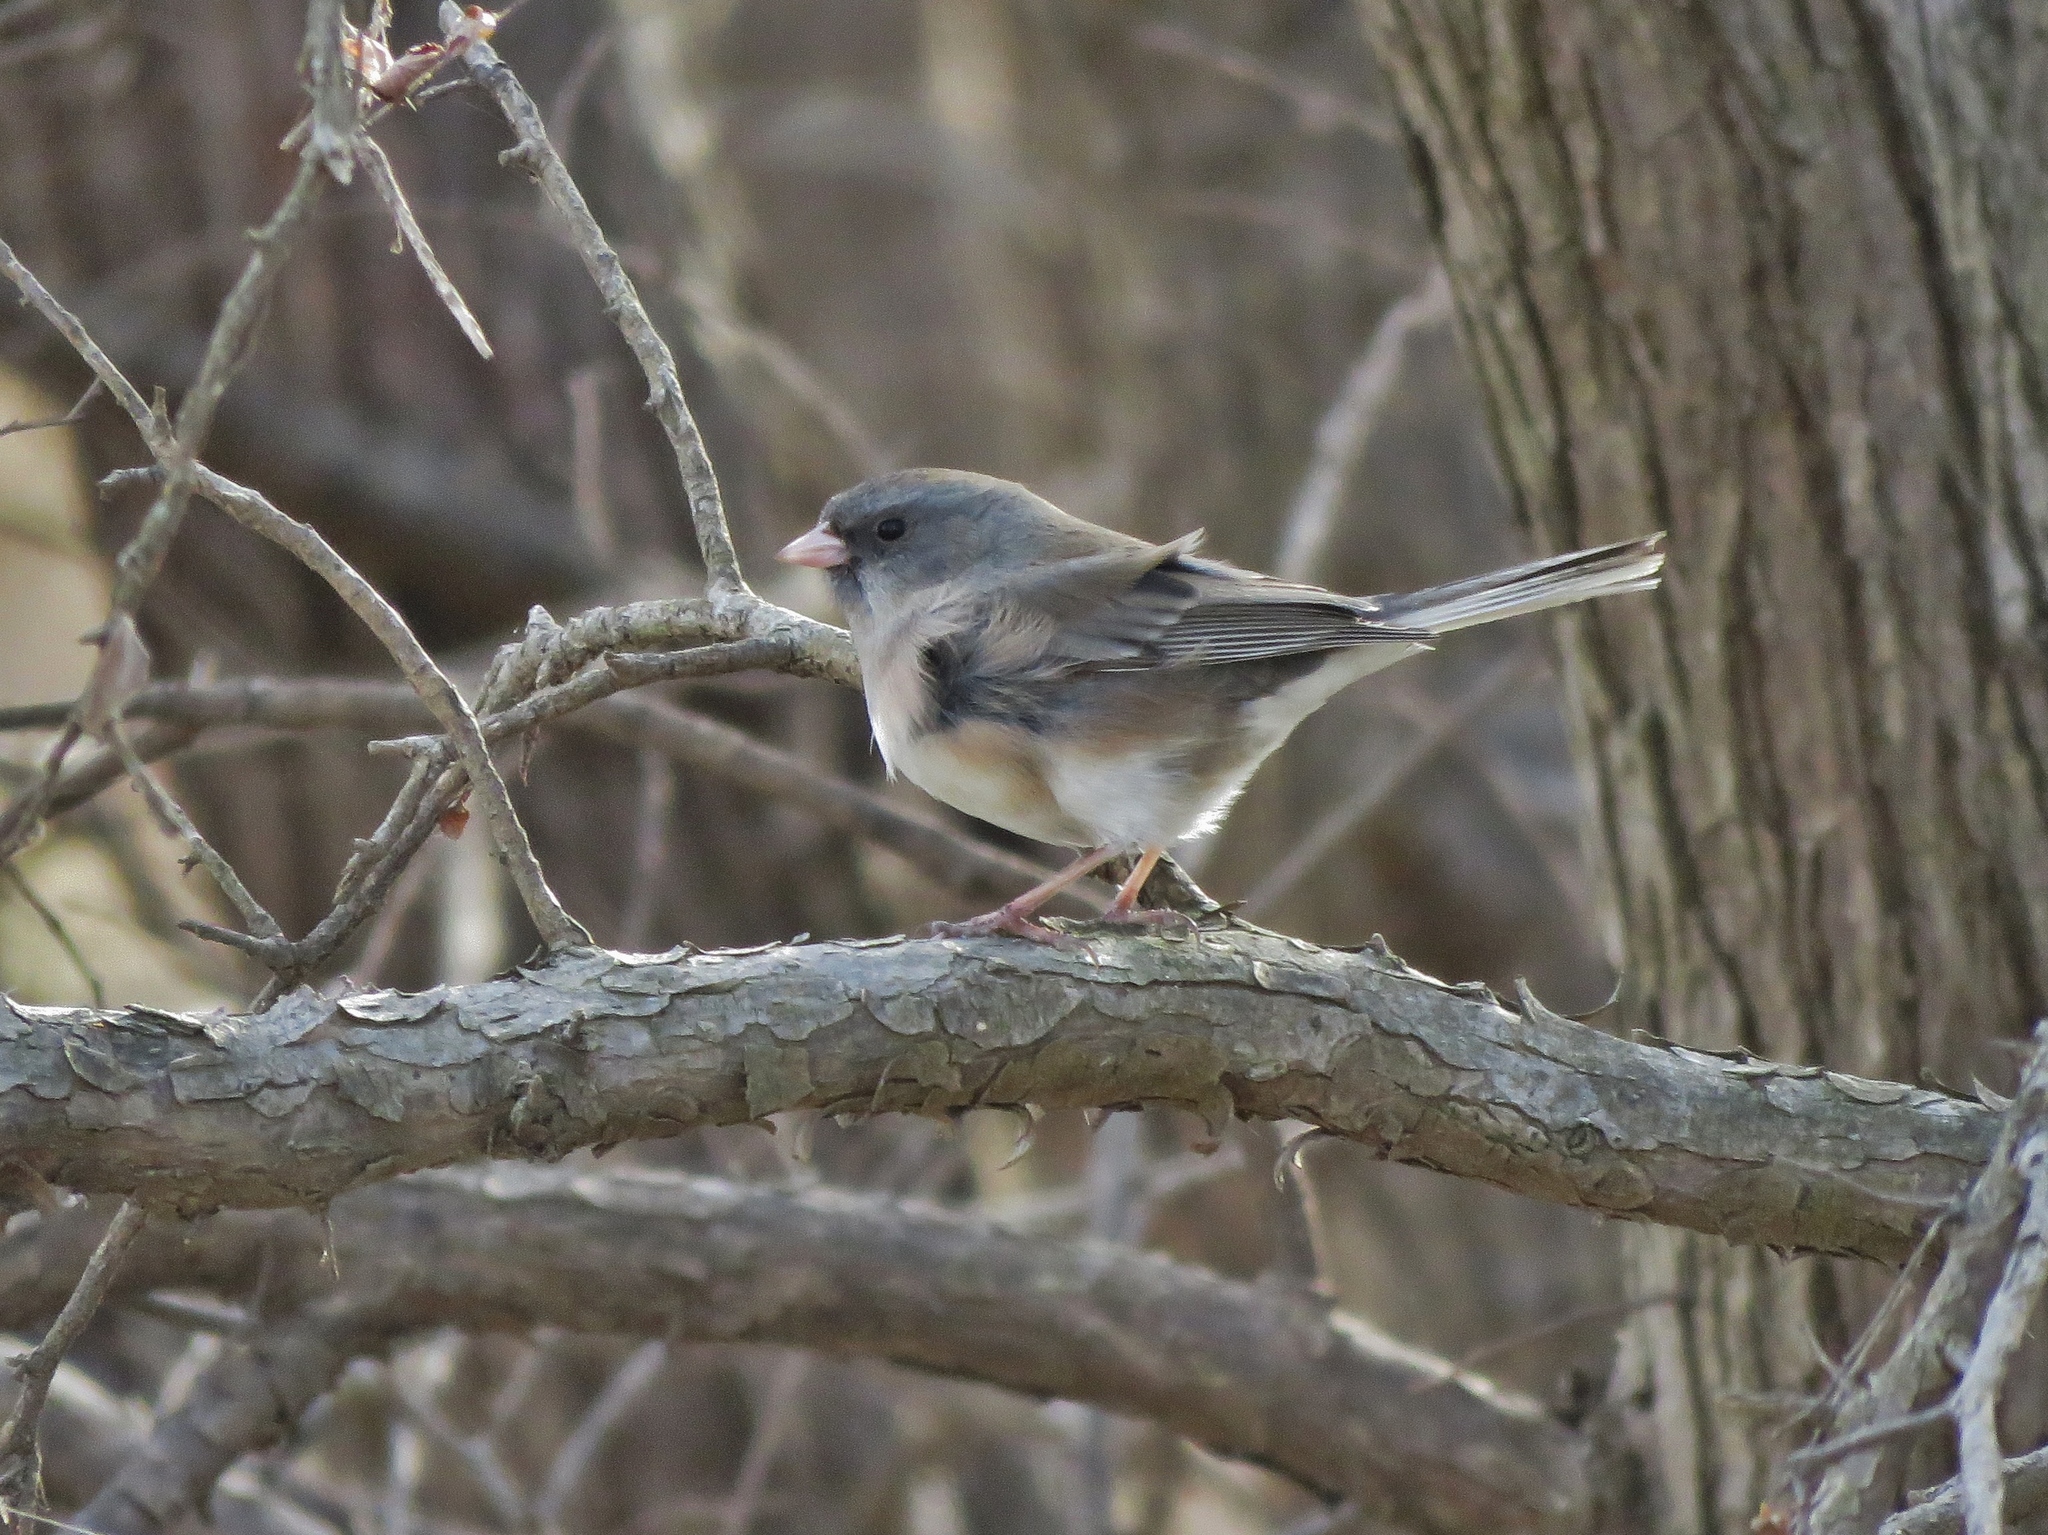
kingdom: Animalia
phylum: Chordata
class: Aves
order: Passeriformes
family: Passerellidae
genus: Junco
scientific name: Junco hyemalis
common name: Dark-eyed junco
